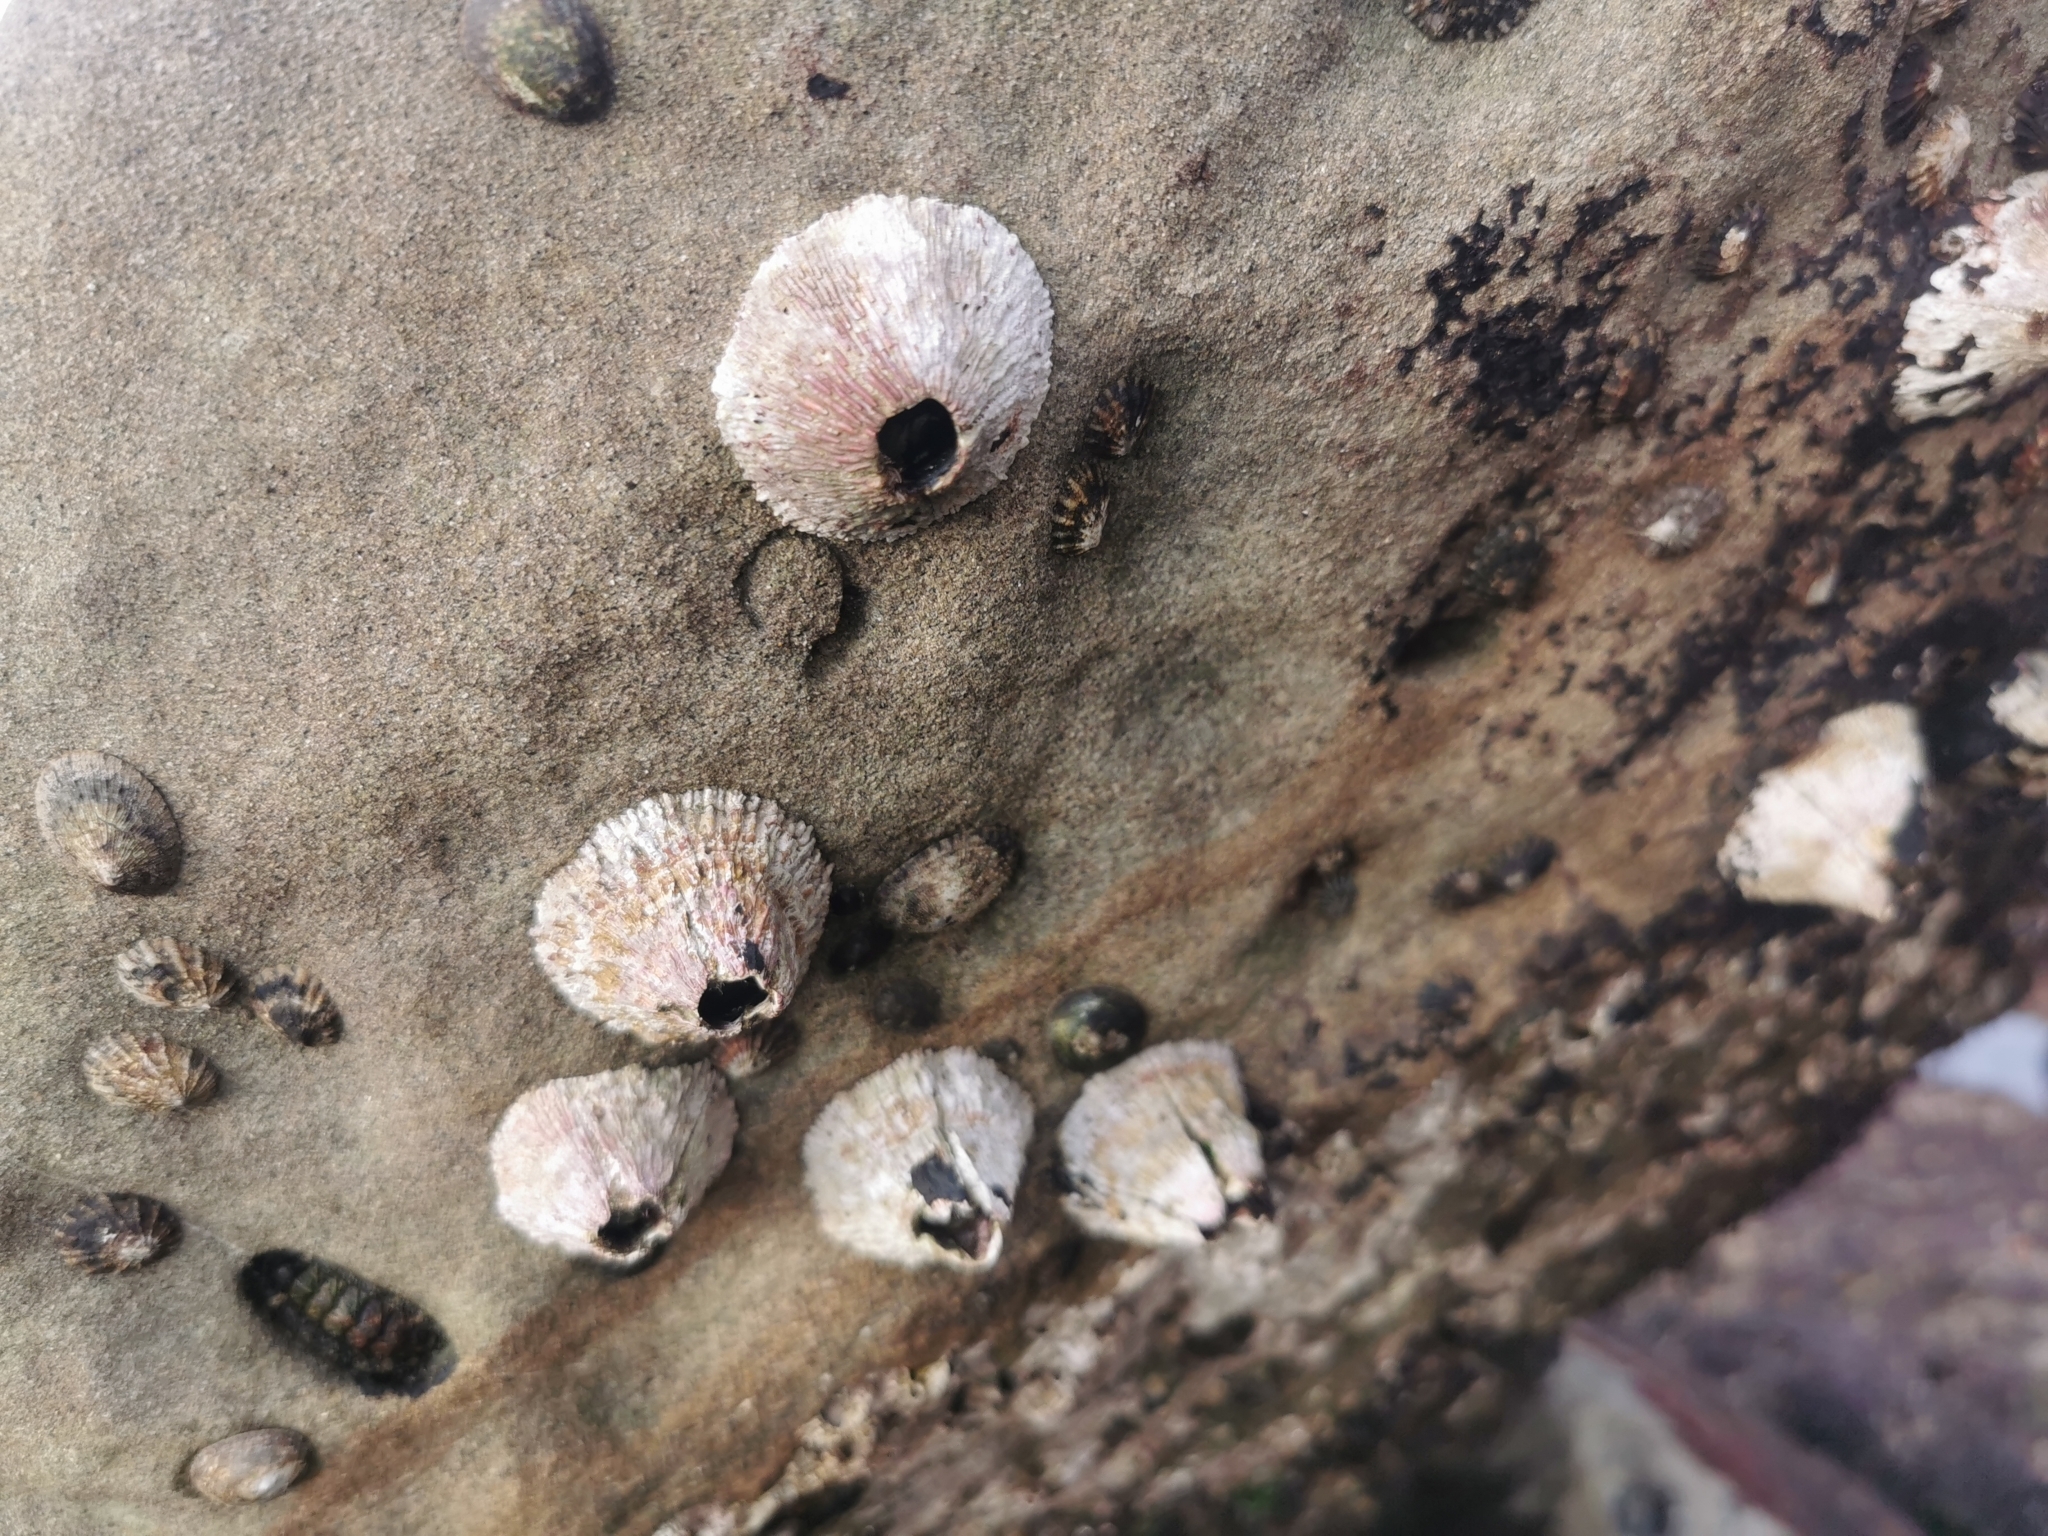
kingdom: Animalia
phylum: Arthropoda
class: Maxillopoda
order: Sessilia
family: Tetraclitidae
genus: Tetraclita
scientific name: Tetraclita rubescens
